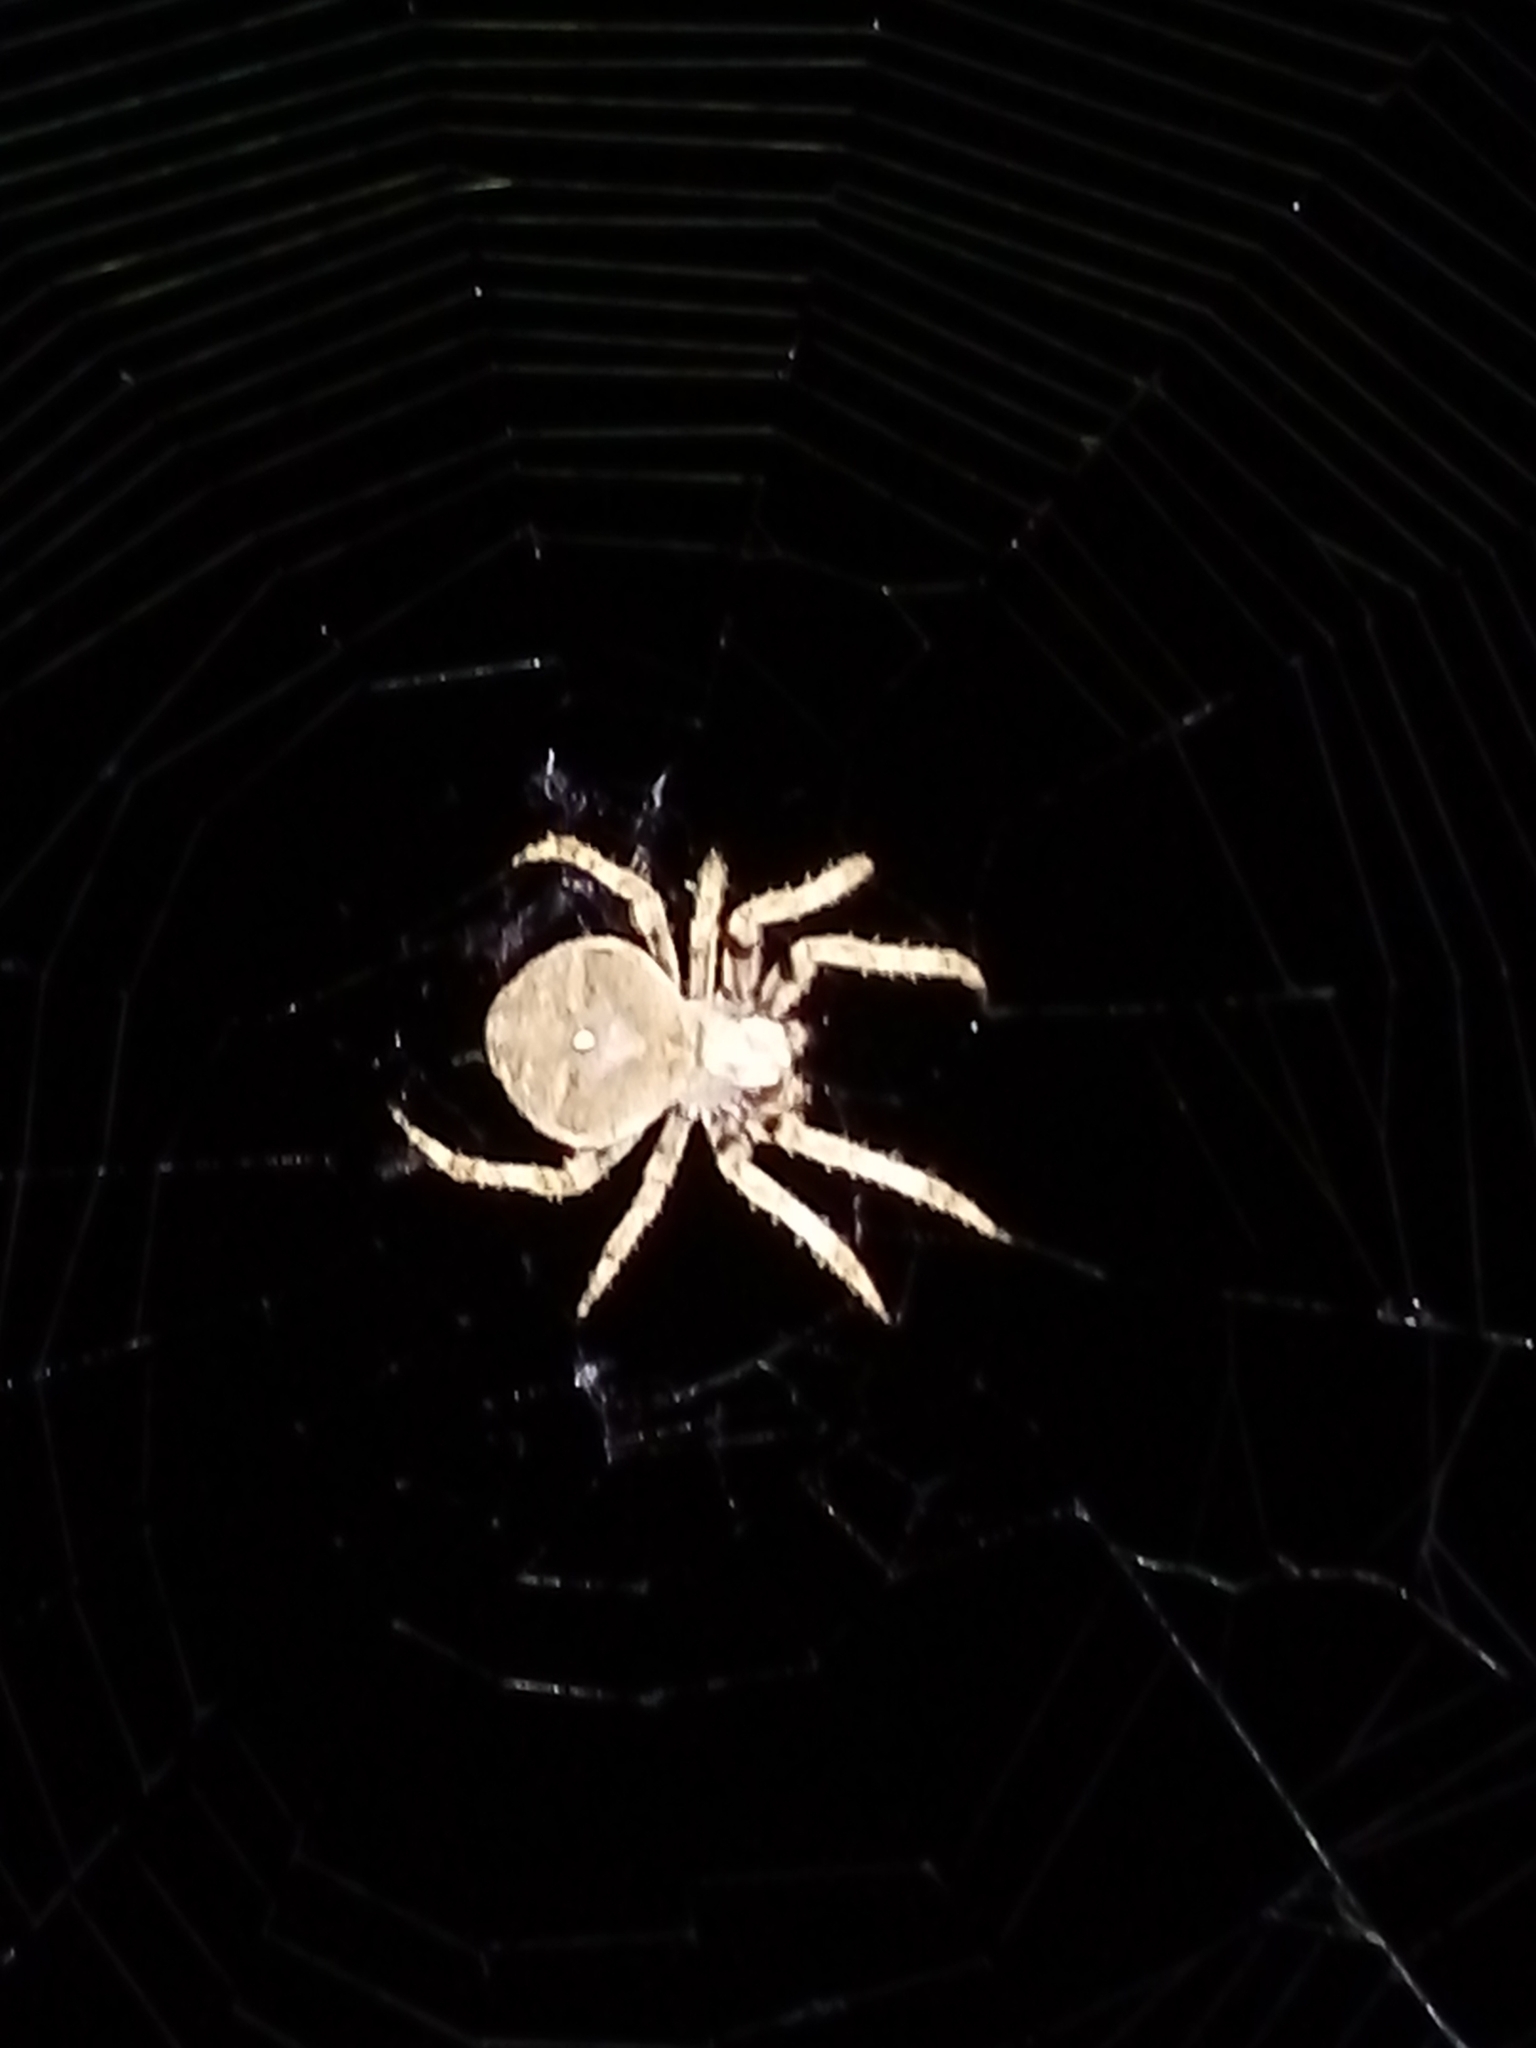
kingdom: Animalia
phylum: Arthropoda
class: Arachnida
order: Araneae
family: Araneidae
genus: Araneus
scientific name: Araneus angulatus
